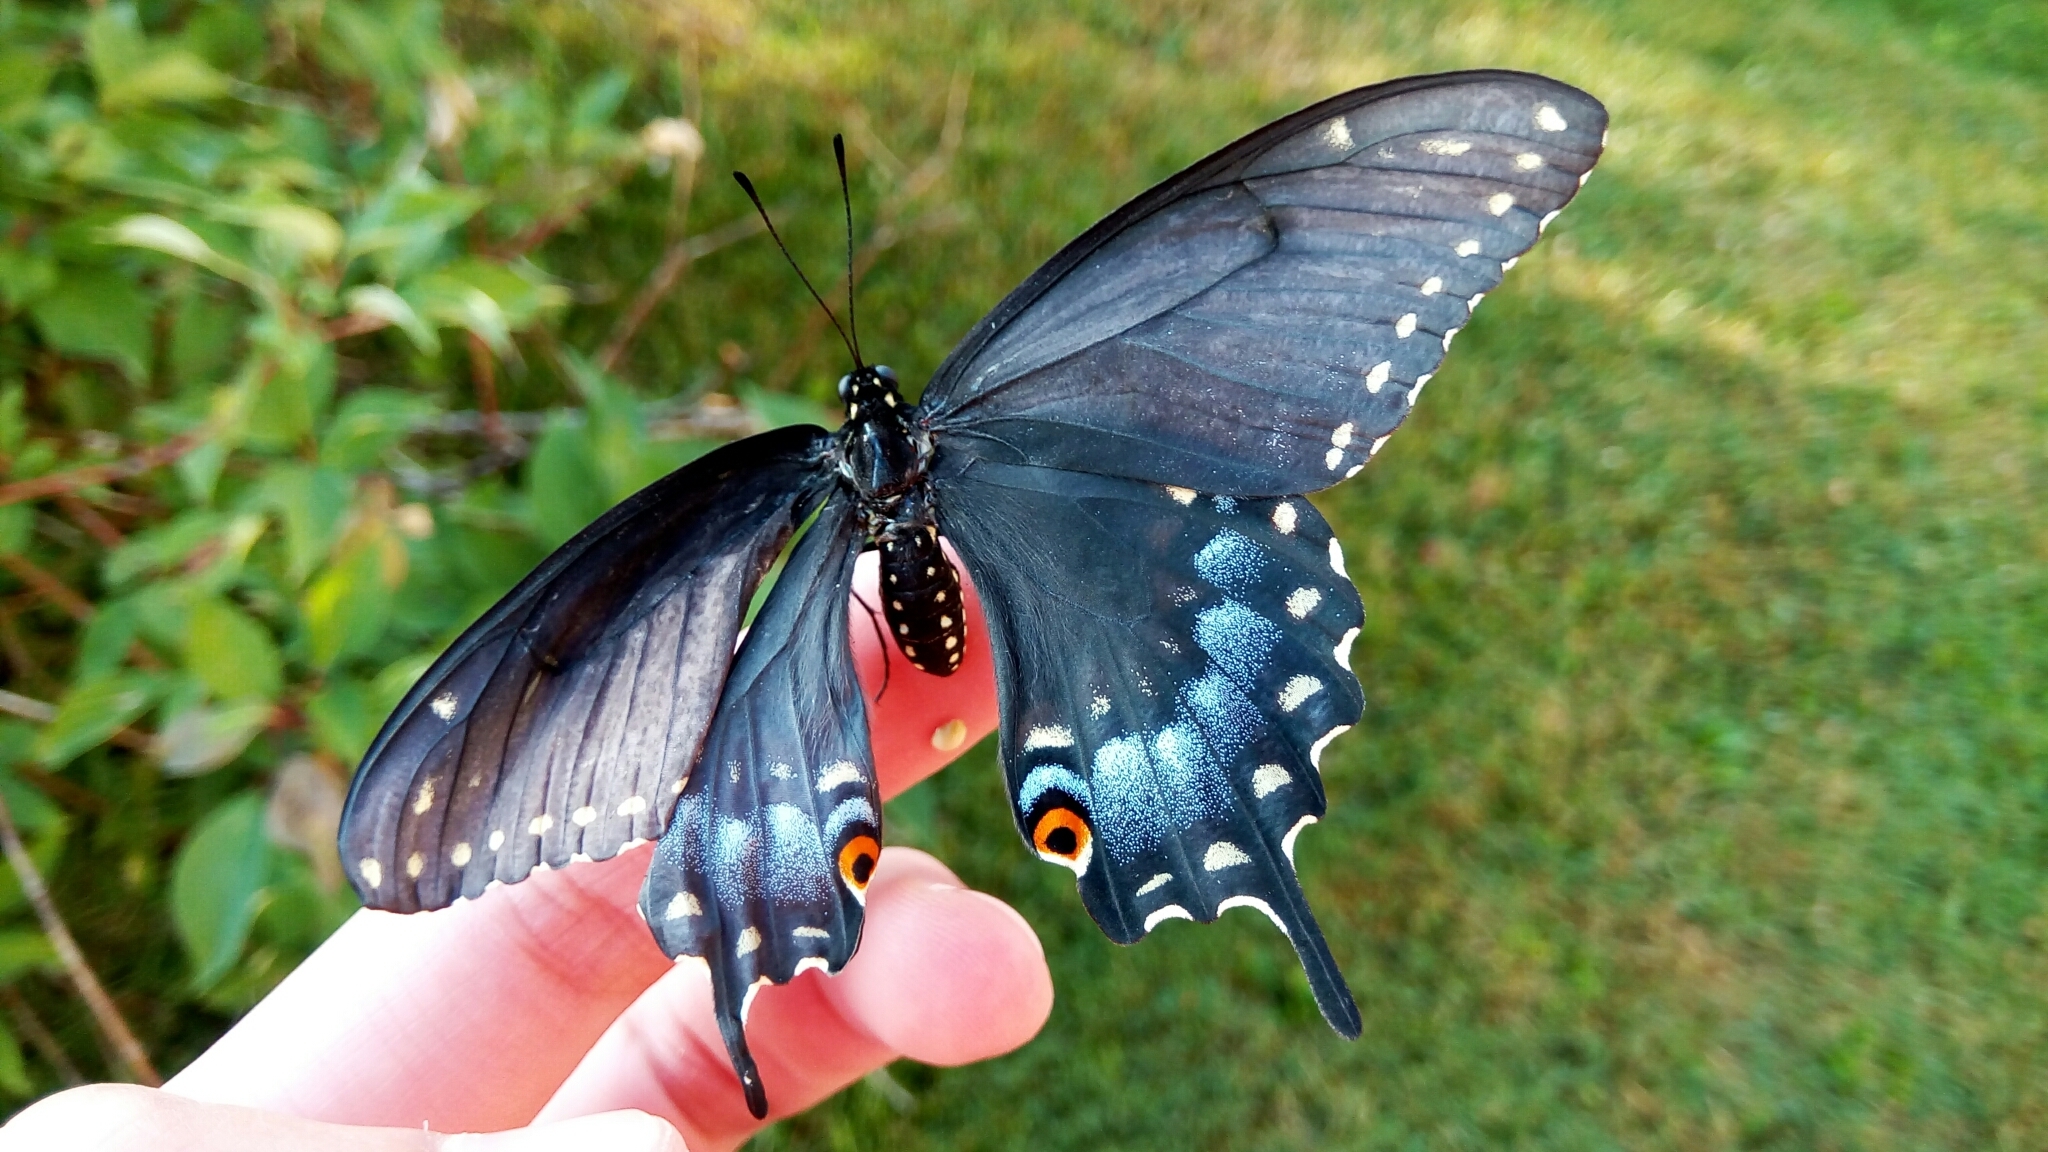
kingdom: Animalia
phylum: Arthropoda
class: Insecta
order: Lepidoptera
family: Papilionidae
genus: Papilio
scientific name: Papilio polyxenes
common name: Black swallowtail
